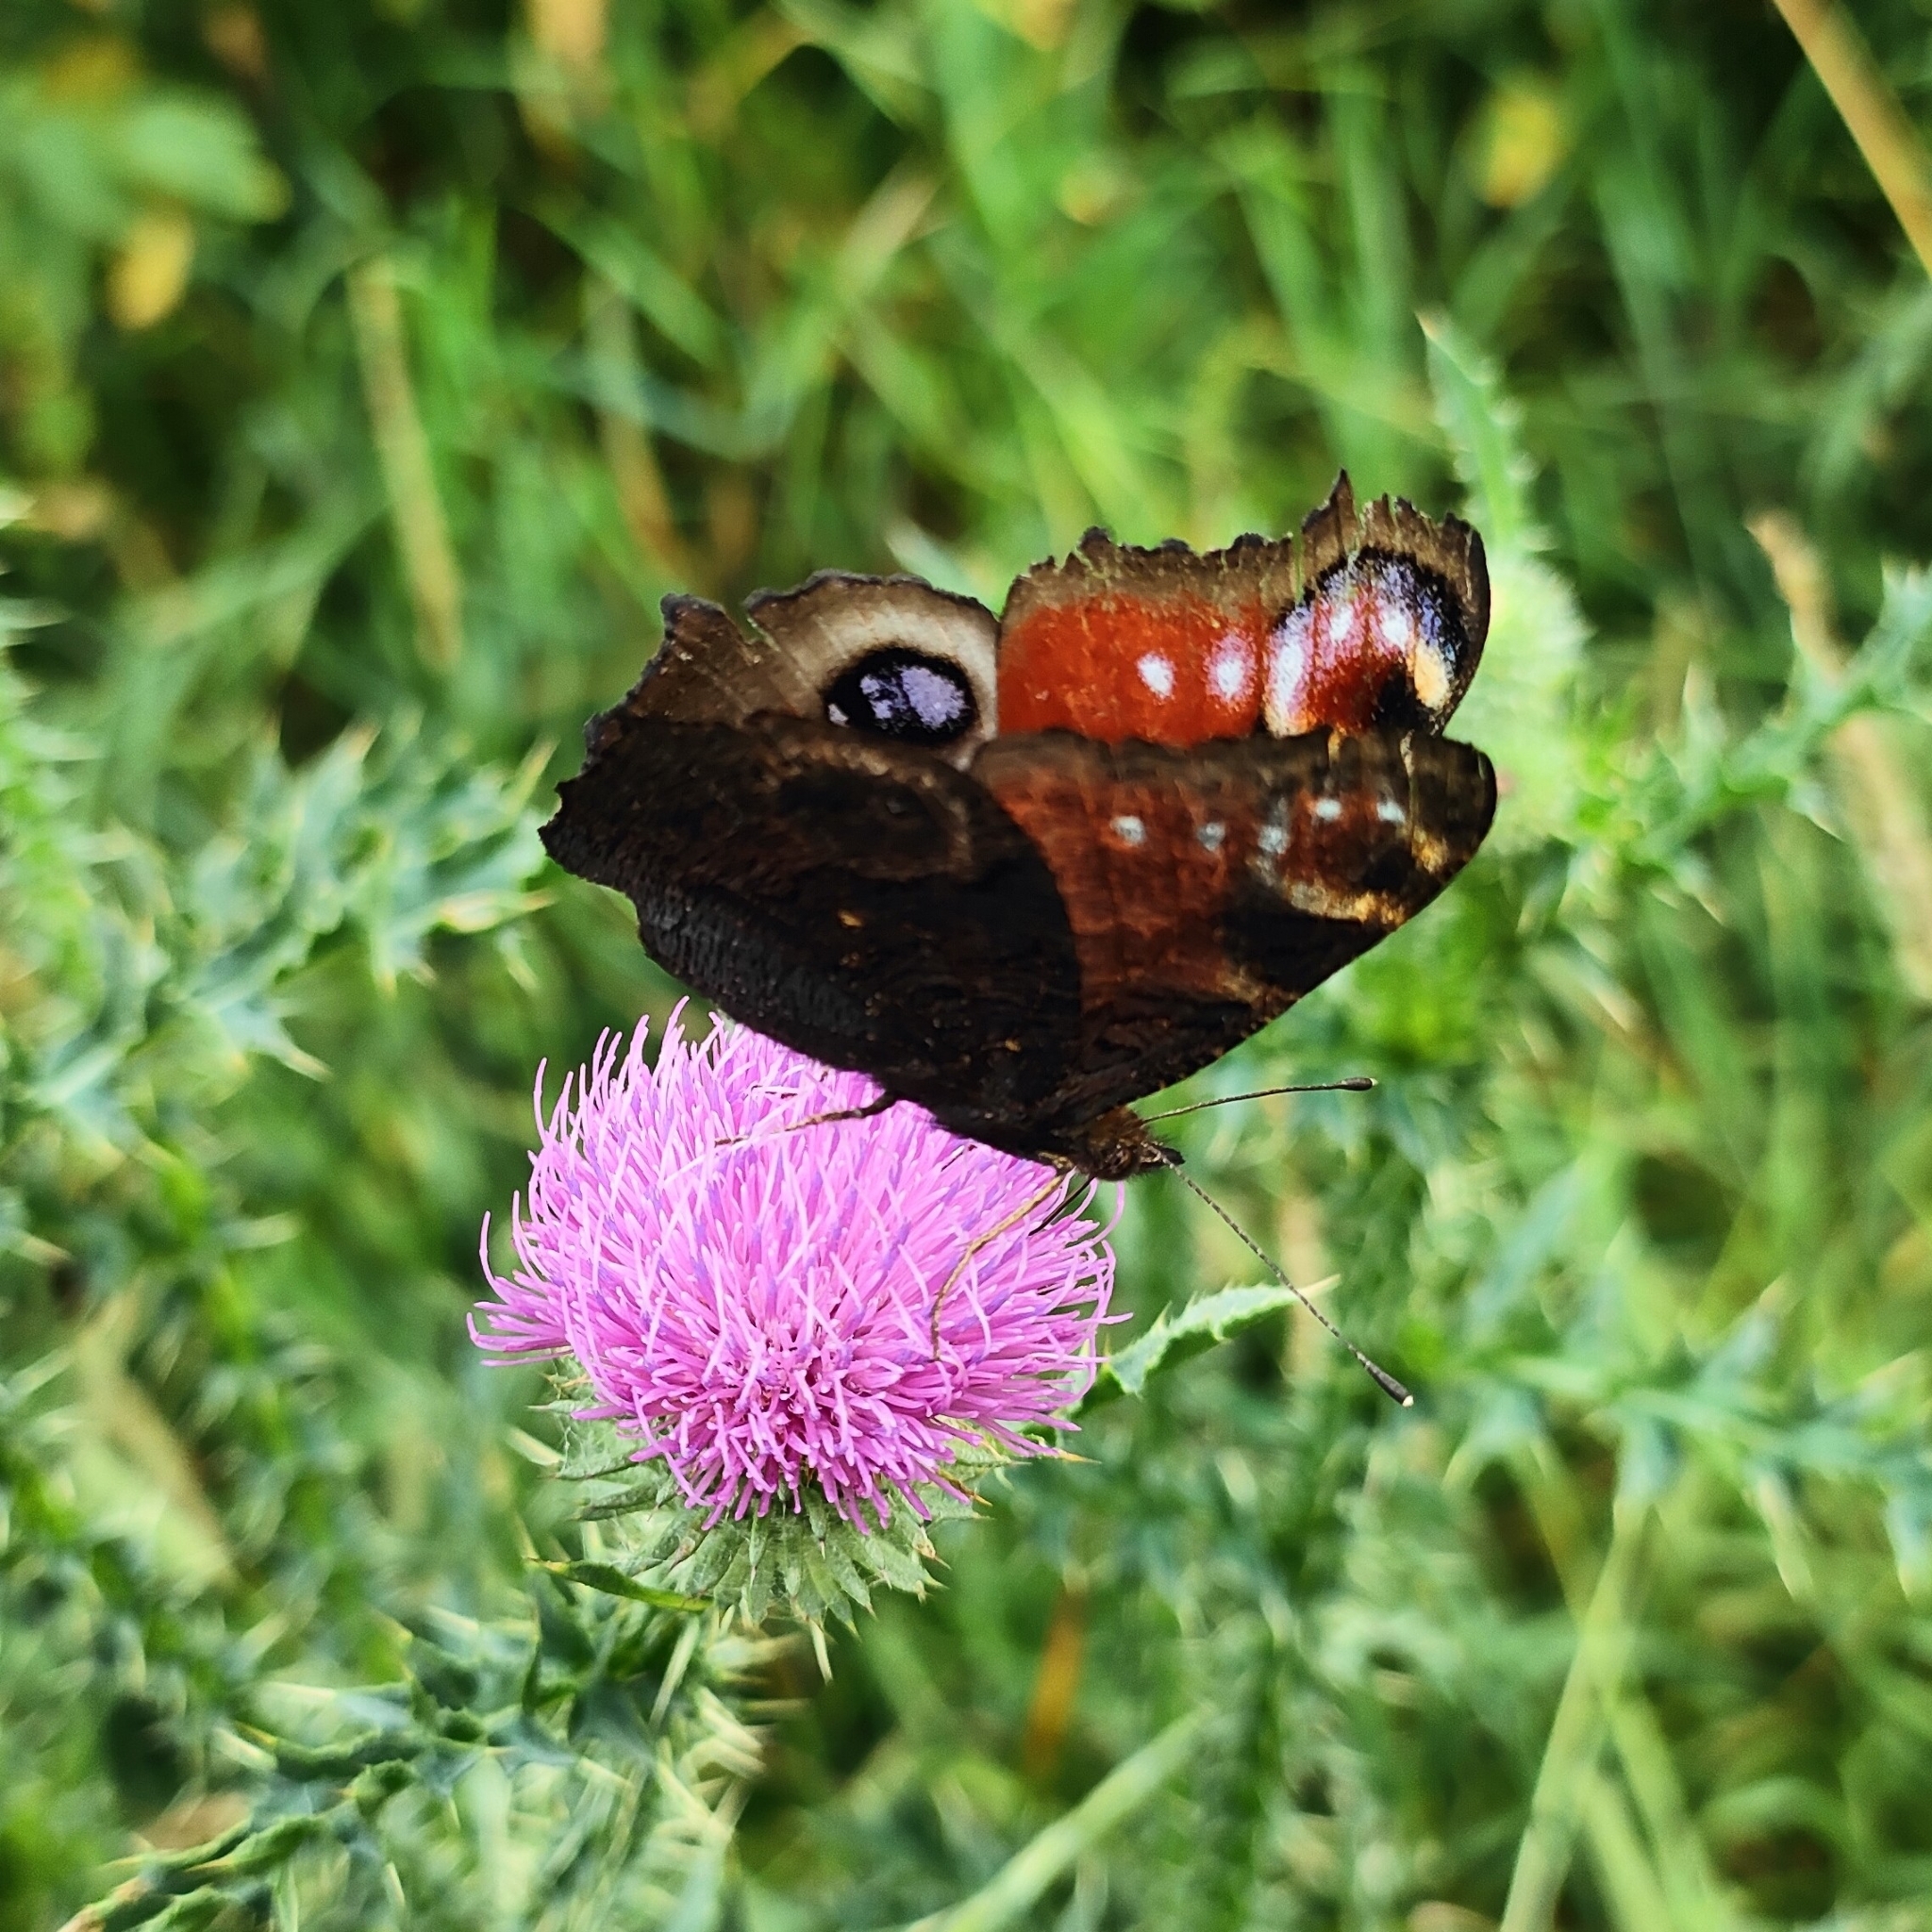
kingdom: Animalia
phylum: Arthropoda
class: Insecta
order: Lepidoptera
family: Nymphalidae
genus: Aglais
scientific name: Aglais io
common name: Peacock
